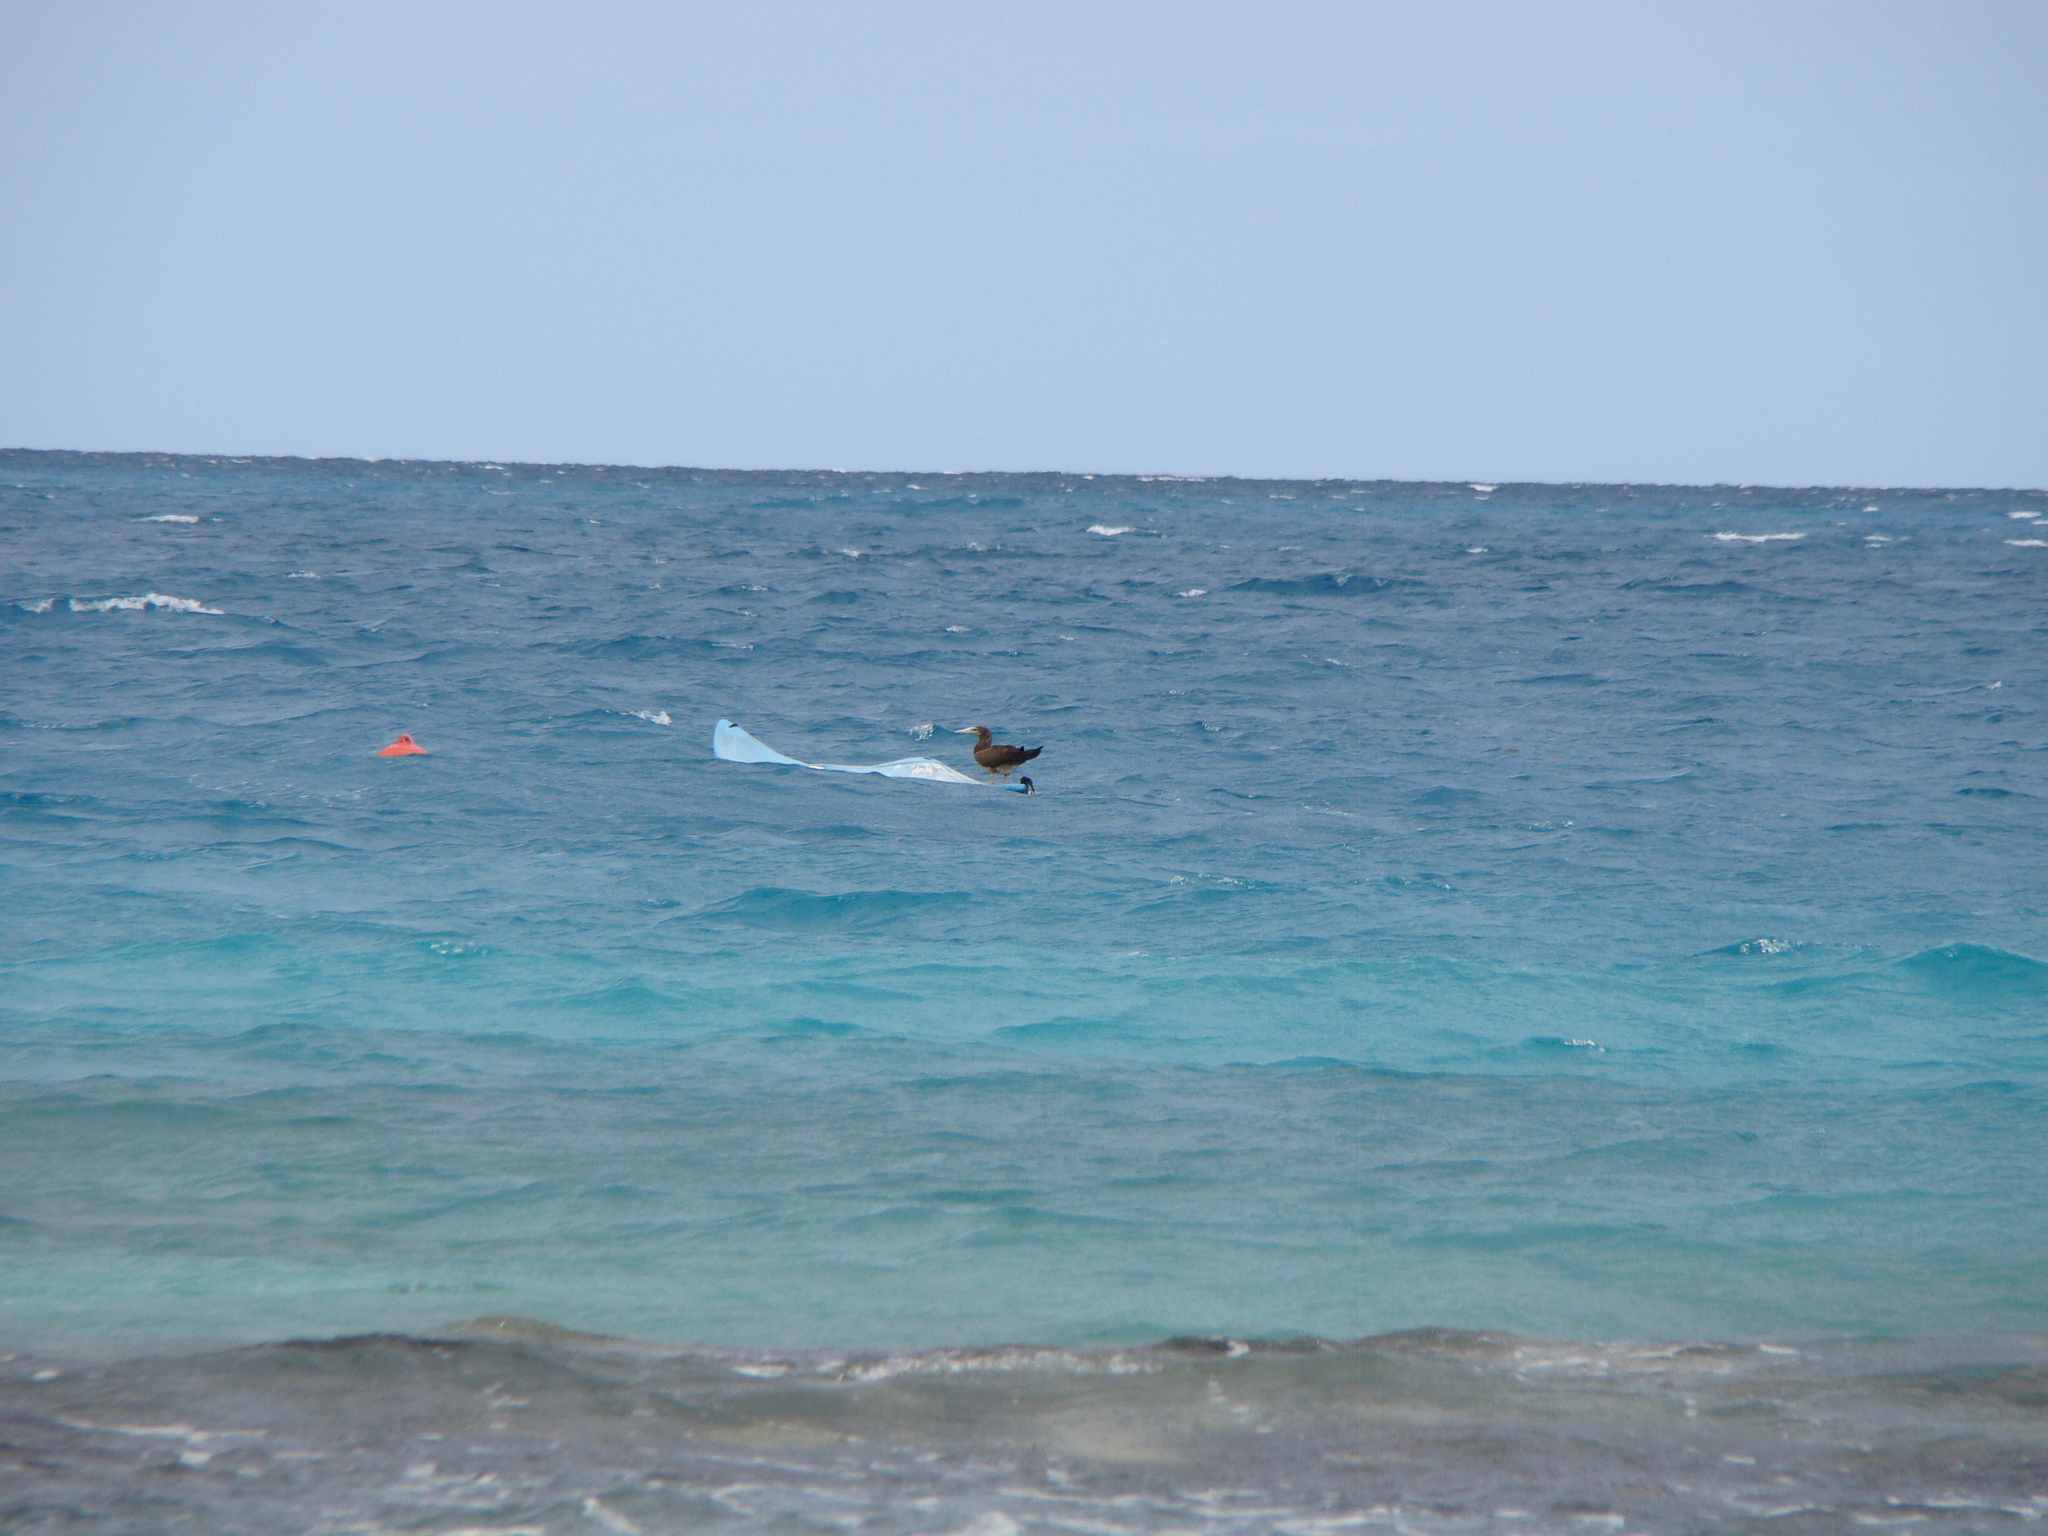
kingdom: Animalia
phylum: Chordata
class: Aves
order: Suliformes
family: Sulidae
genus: Sula
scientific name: Sula leucogaster
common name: Brown booby
